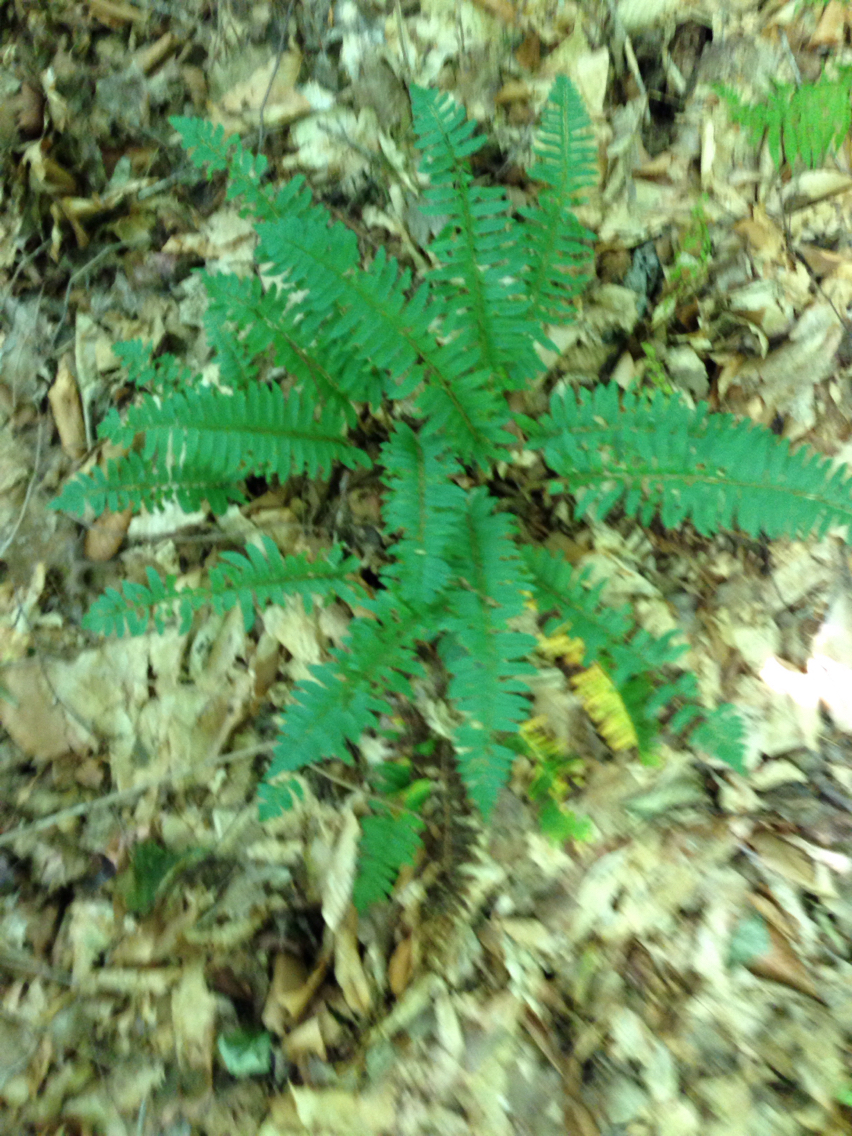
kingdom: Plantae
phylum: Tracheophyta
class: Polypodiopsida
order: Polypodiales
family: Dryopteridaceae
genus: Polystichum
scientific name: Polystichum acrostichoides
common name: Christmas fern
